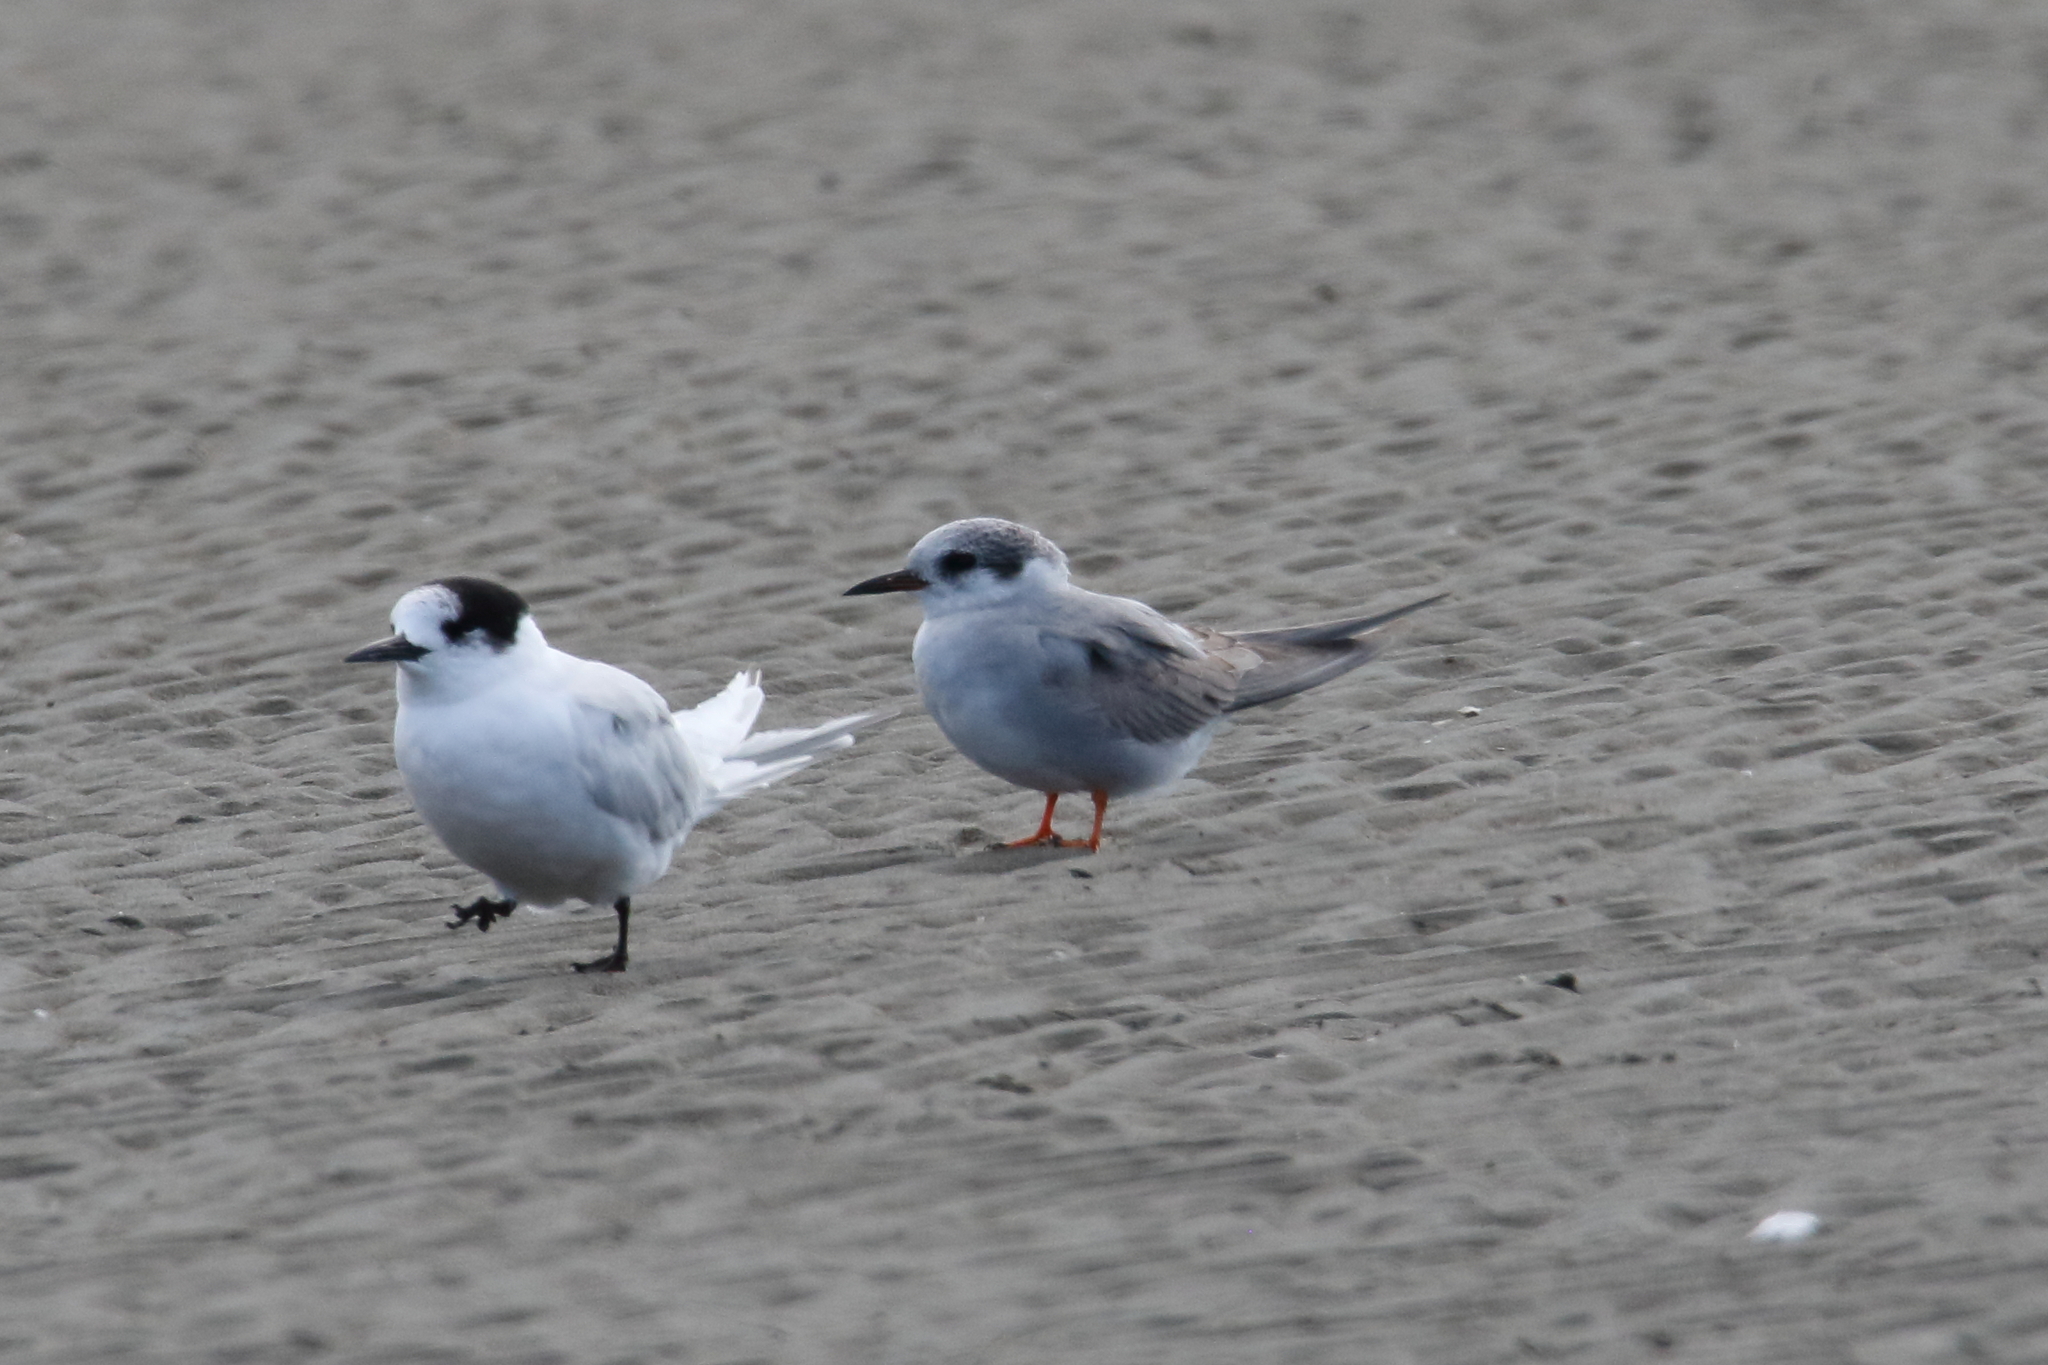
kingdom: Animalia
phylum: Chordata
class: Aves
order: Charadriiformes
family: Laridae
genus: Chlidonias
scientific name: Chlidonias albostriatus
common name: Black-fronted tern
